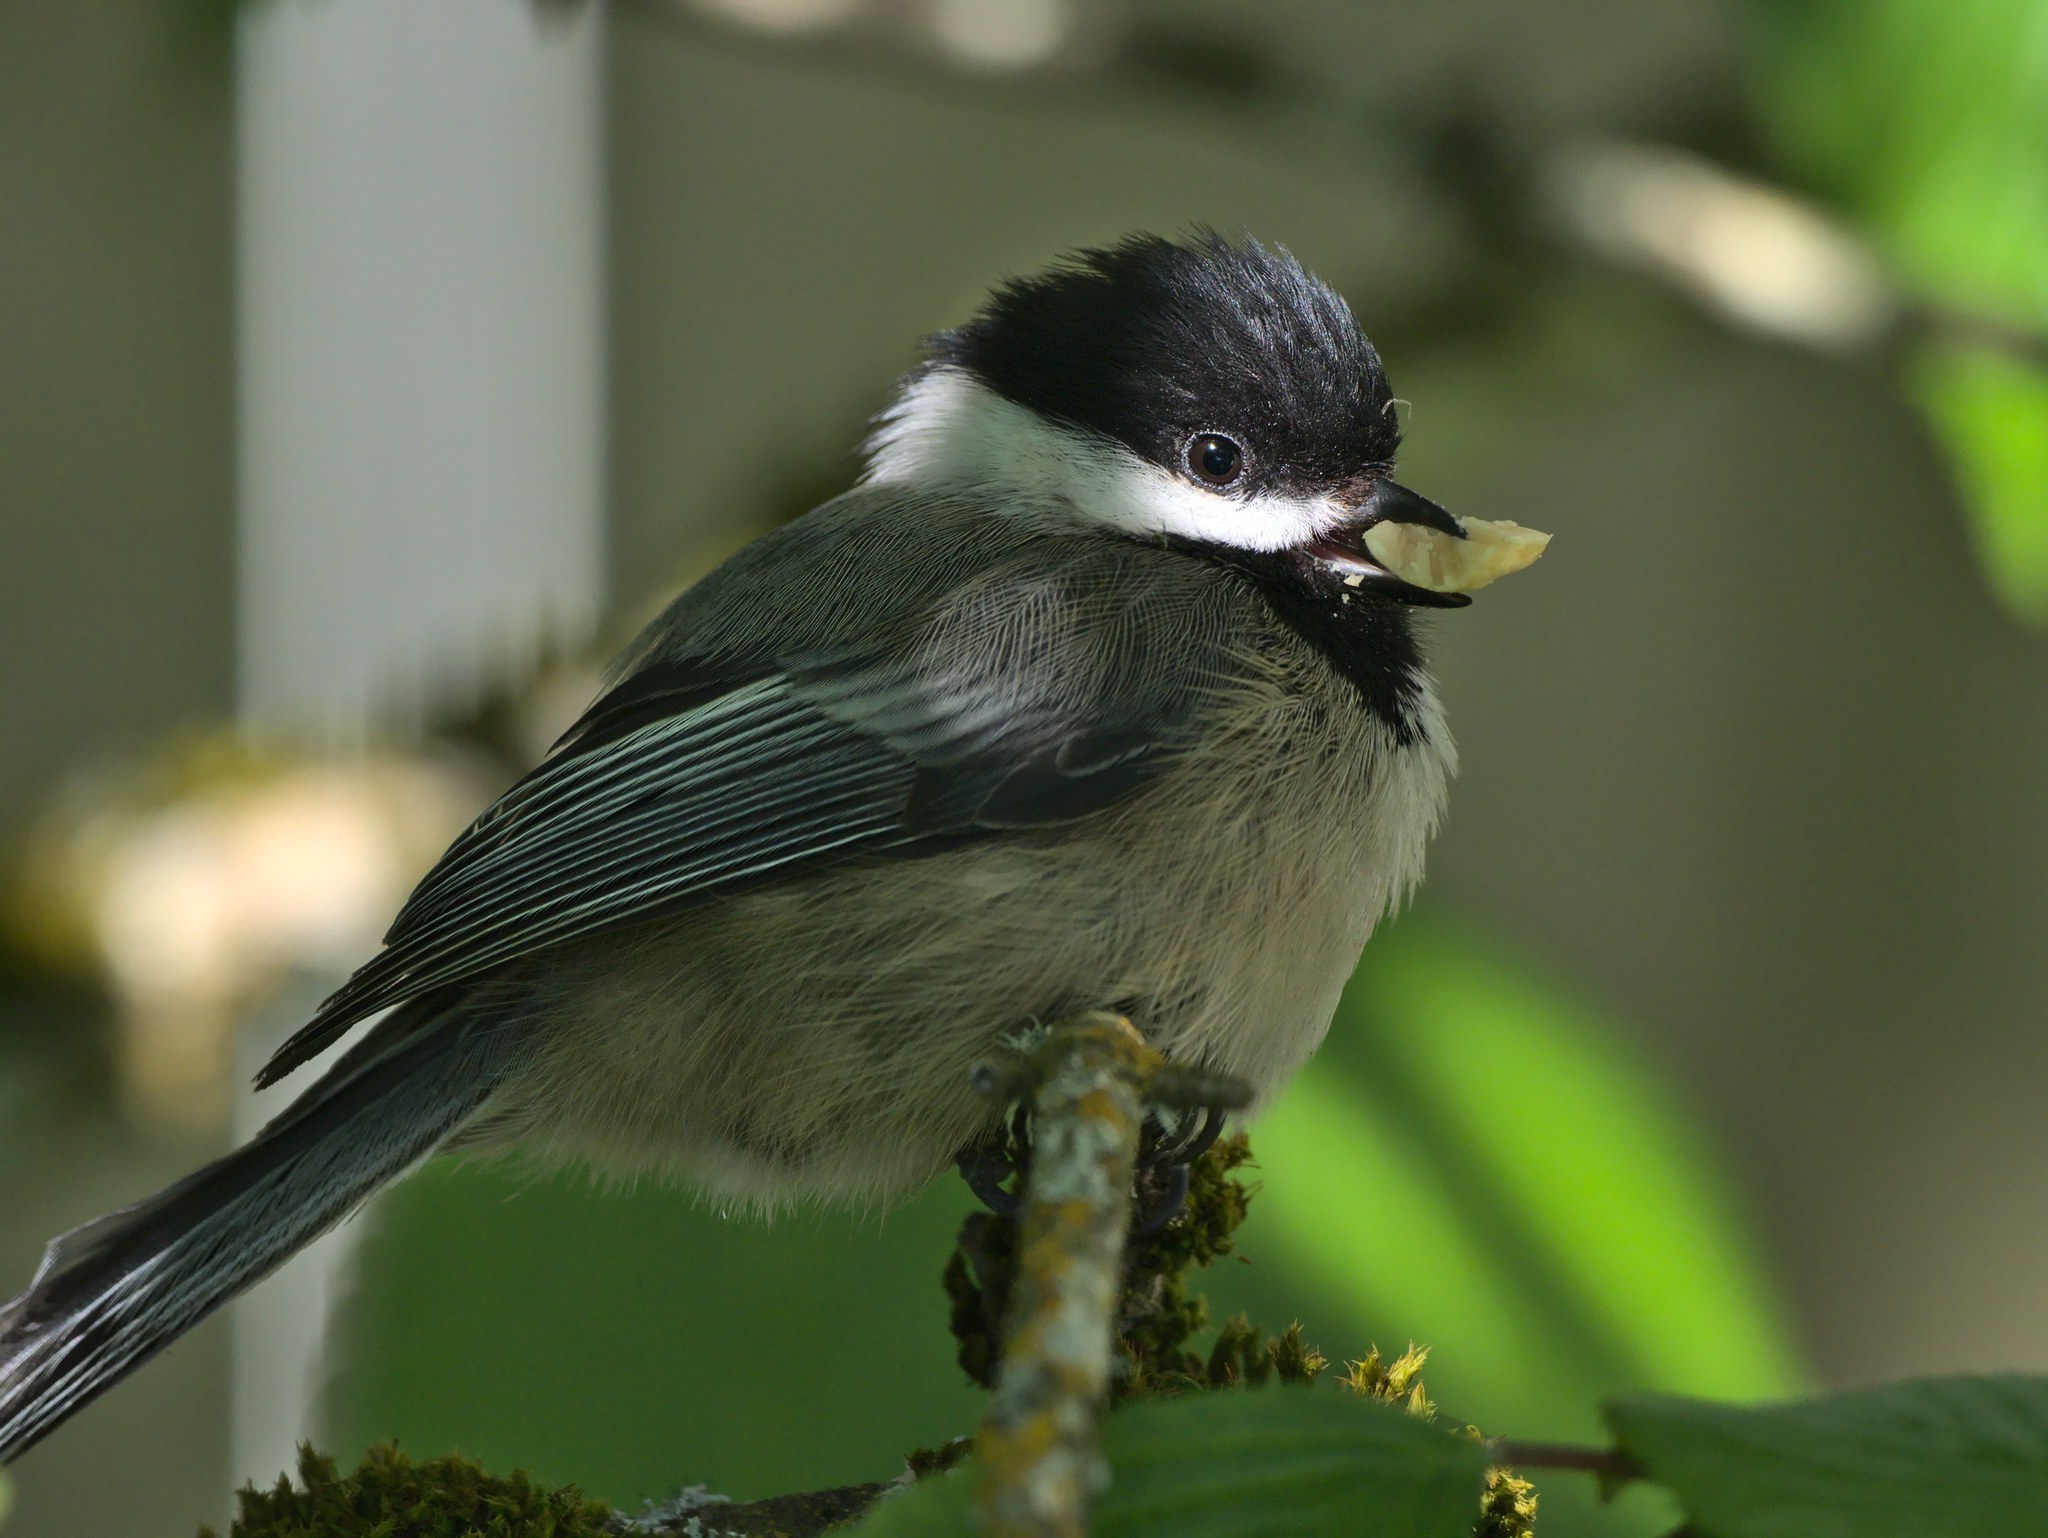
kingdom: Animalia
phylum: Chordata
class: Aves
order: Passeriformes
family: Paridae
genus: Poecile
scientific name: Poecile atricapillus
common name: Black-capped chickadee
